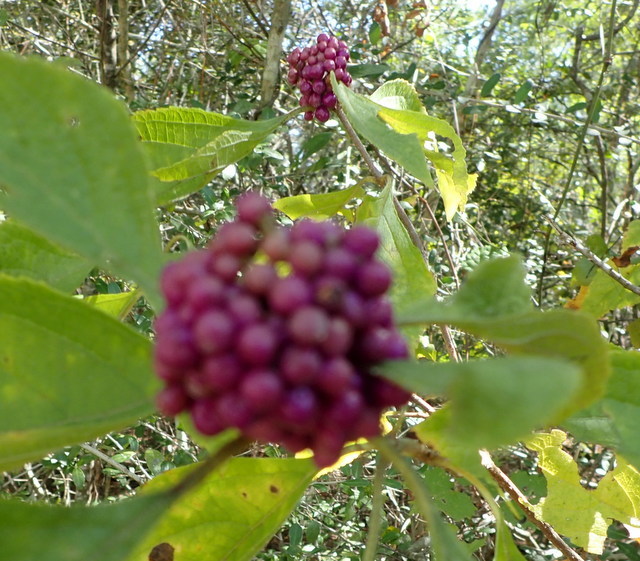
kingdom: Plantae
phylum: Tracheophyta
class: Magnoliopsida
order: Lamiales
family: Lamiaceae
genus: Callicarpa
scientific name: Callicarpa americana
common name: American beautyberry
